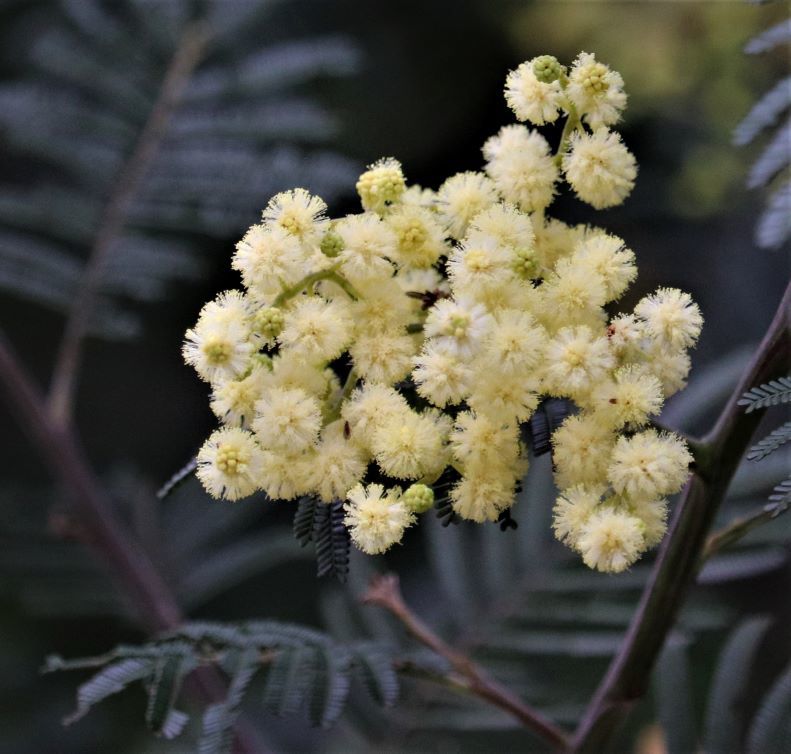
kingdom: Plantae
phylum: Tracheophyta
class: Magnoliopsida
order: Fabales
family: Fabaceae
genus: Acacia
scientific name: Acacia mearnsii
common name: Black wattle
